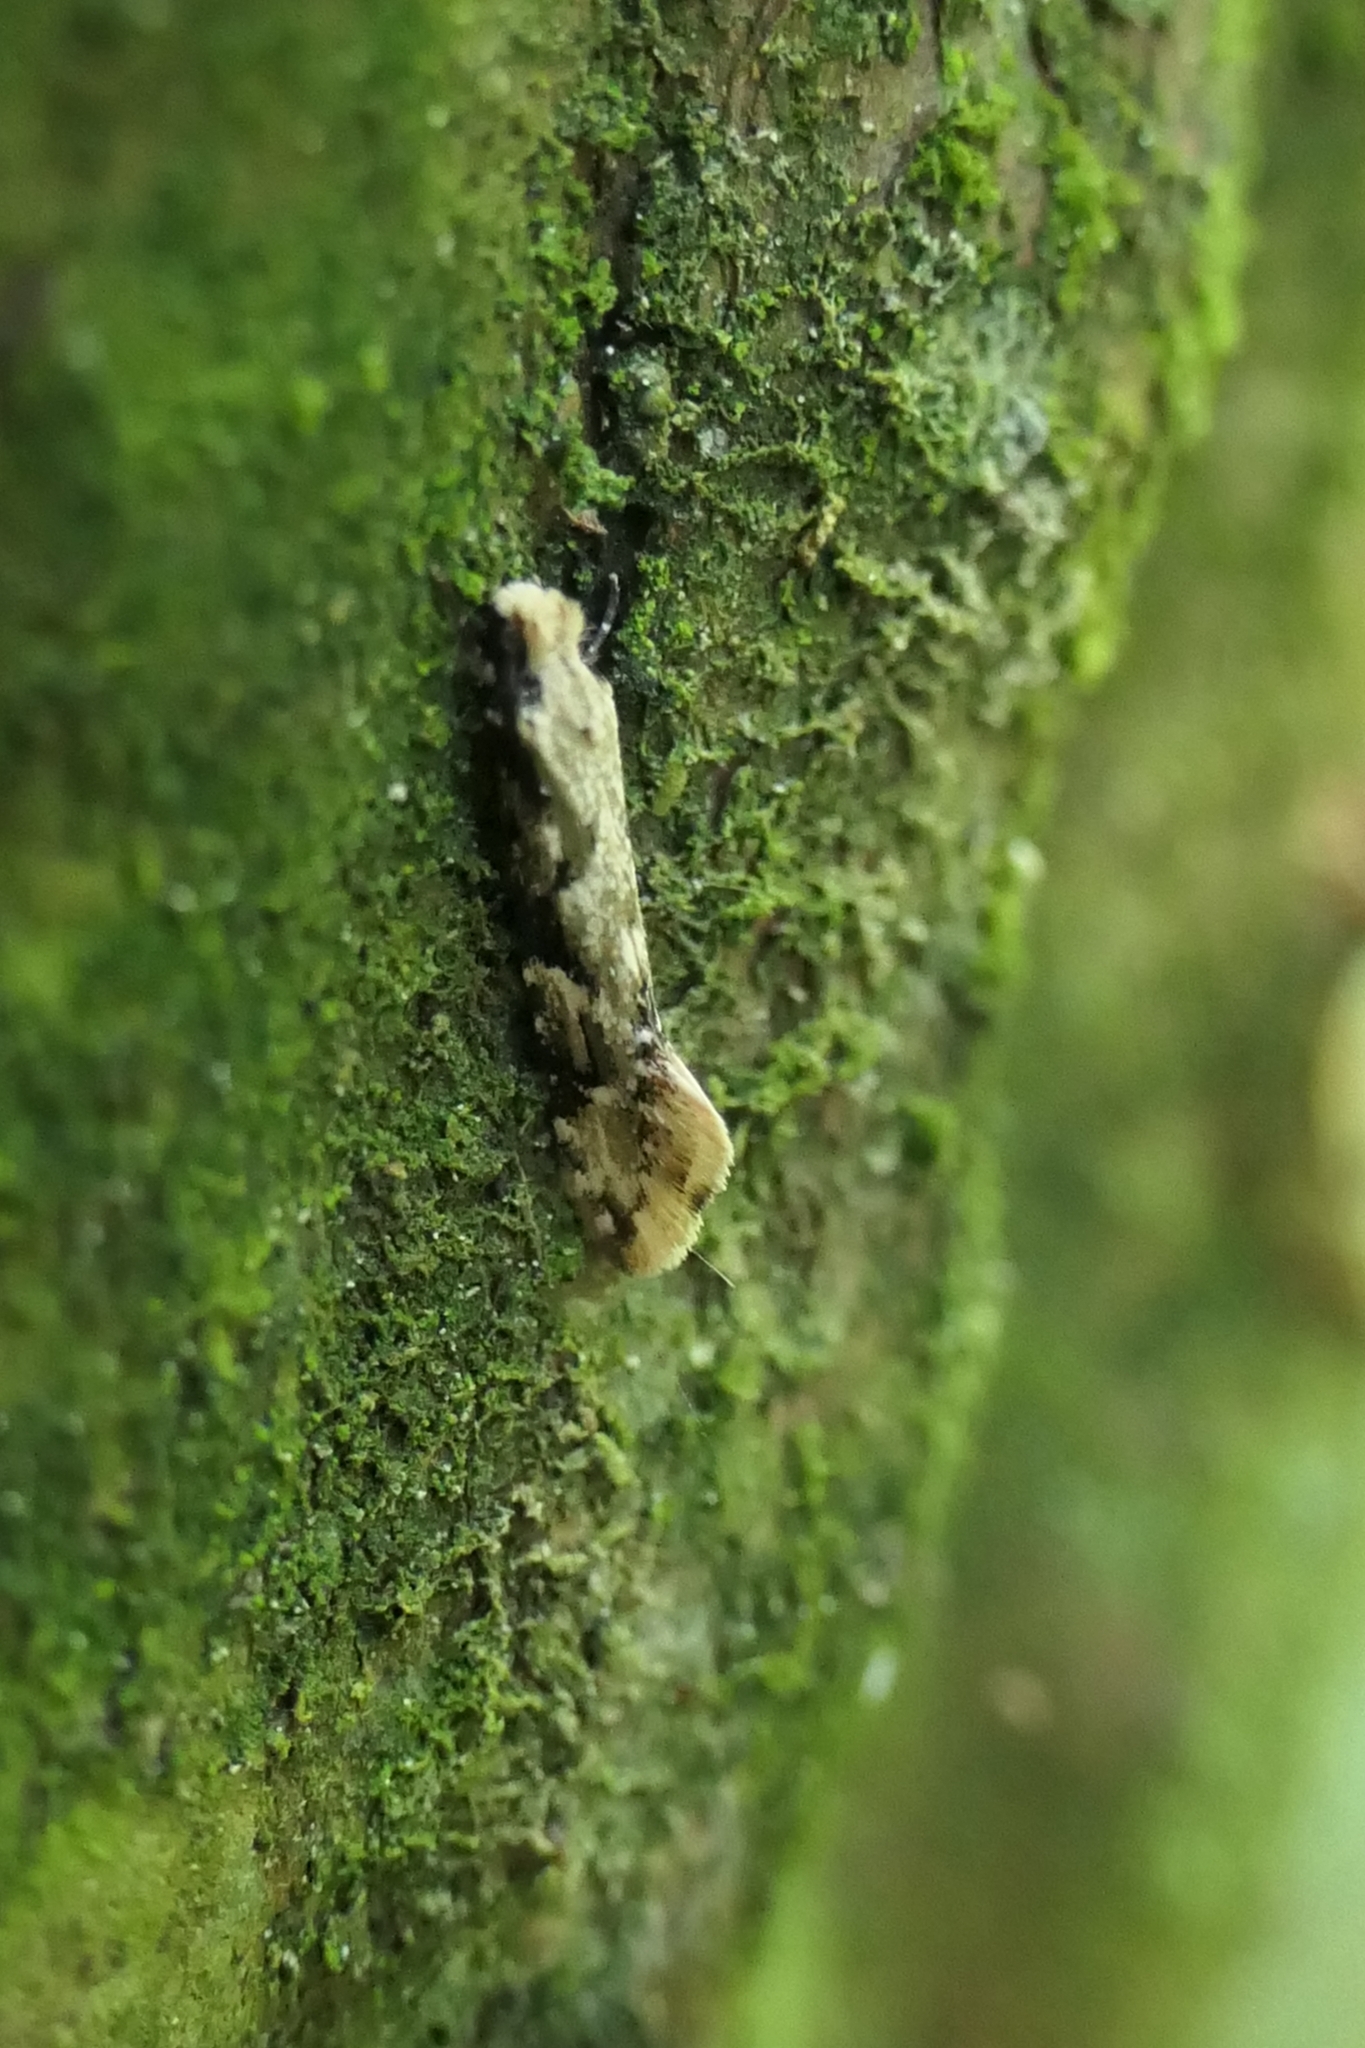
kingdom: Animalia
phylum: Arthropoda
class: Insecta
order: Lepidoptera
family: Tineidae
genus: Crypsitricha
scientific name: Crypsitricha mesotypa
